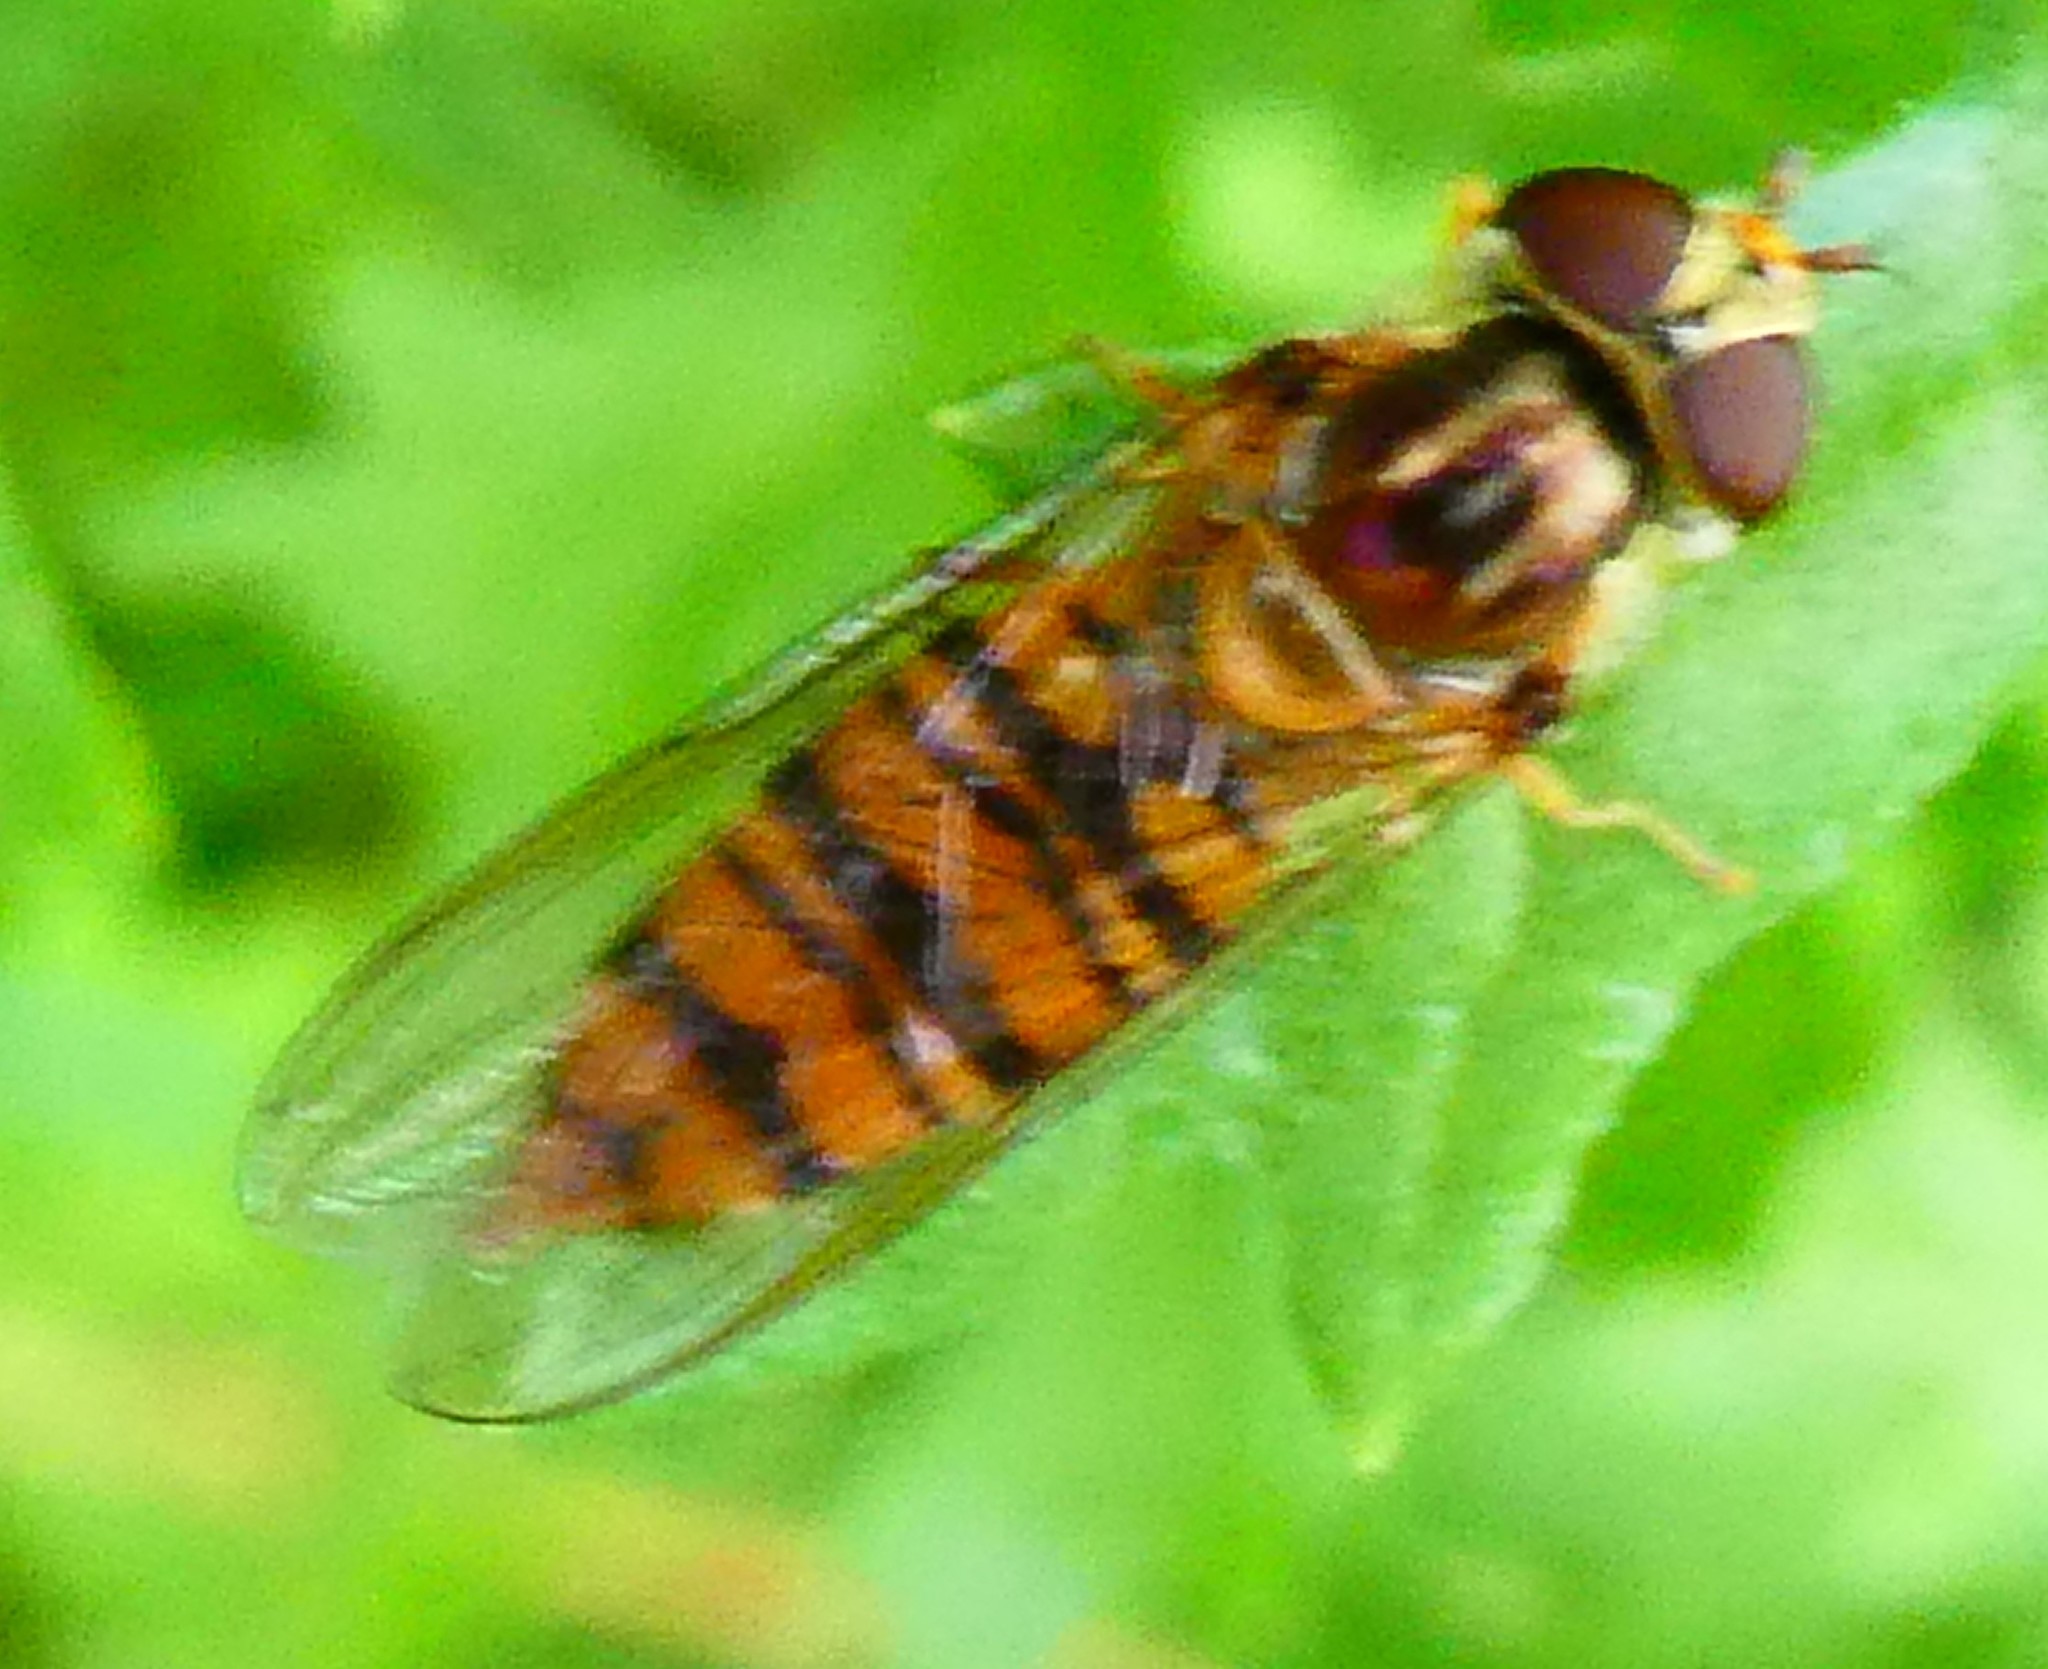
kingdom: Animalia
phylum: Arthropoda
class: Insecta
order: Diptera
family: Syrphidae
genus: Episyrphus
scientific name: Episyrphus balteatus
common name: Marmalade hoverfly
